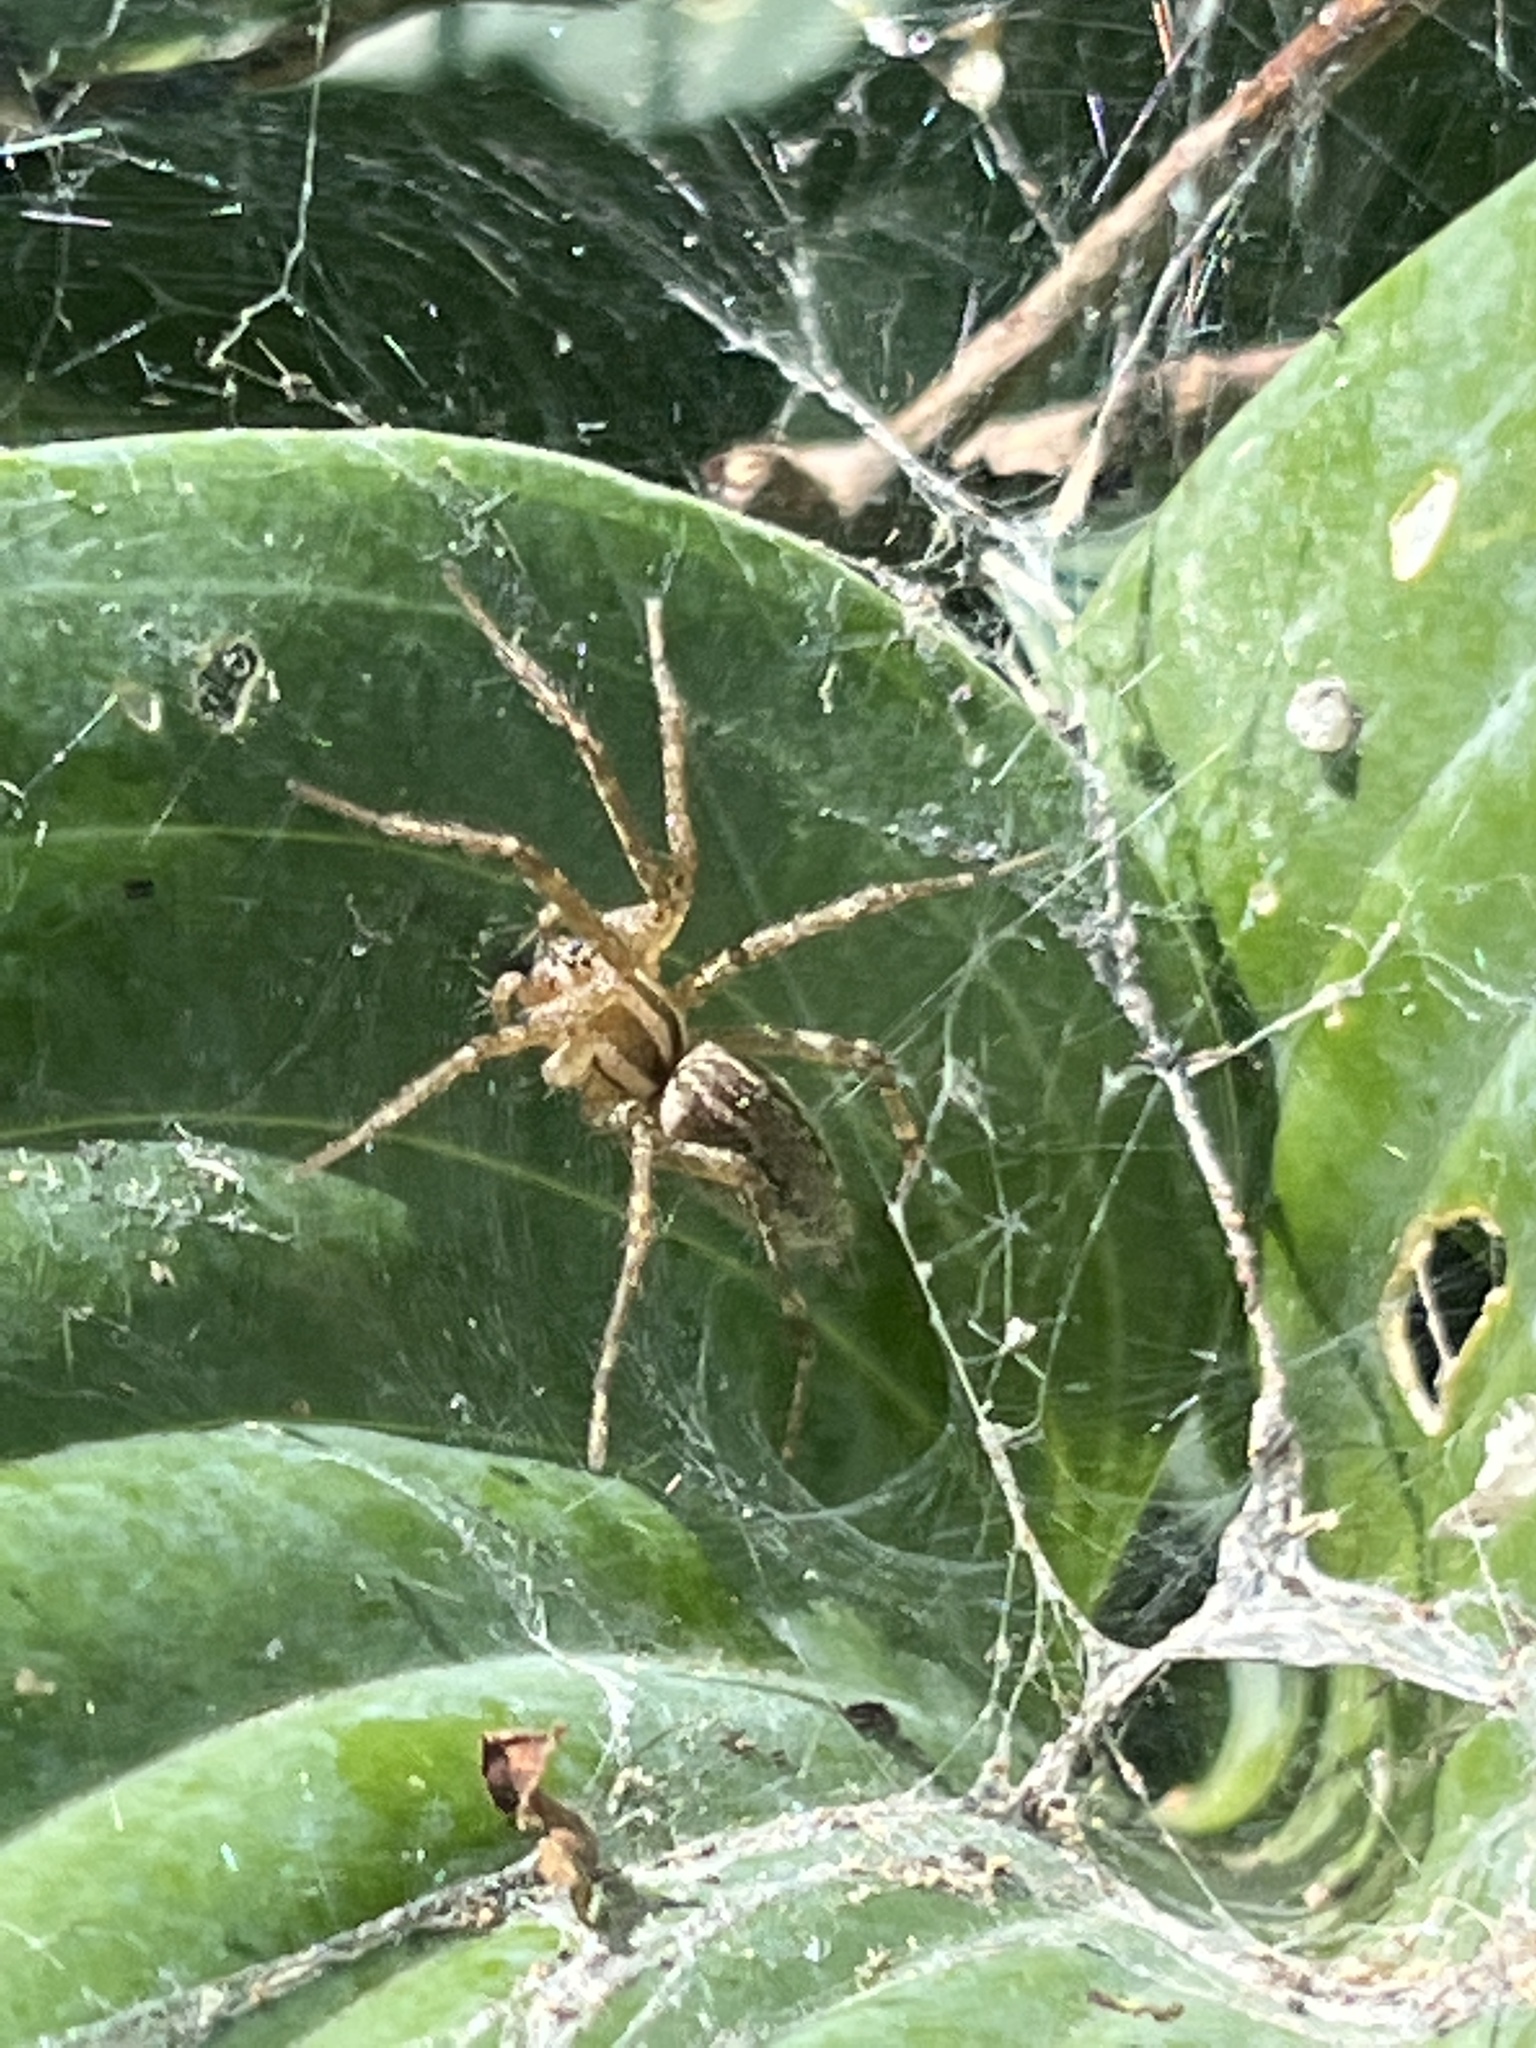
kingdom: Animalia
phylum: Arthropoda
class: Arachnida
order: Araneae
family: Agelenidae
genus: Agelenopsis
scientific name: Agelenopsis
